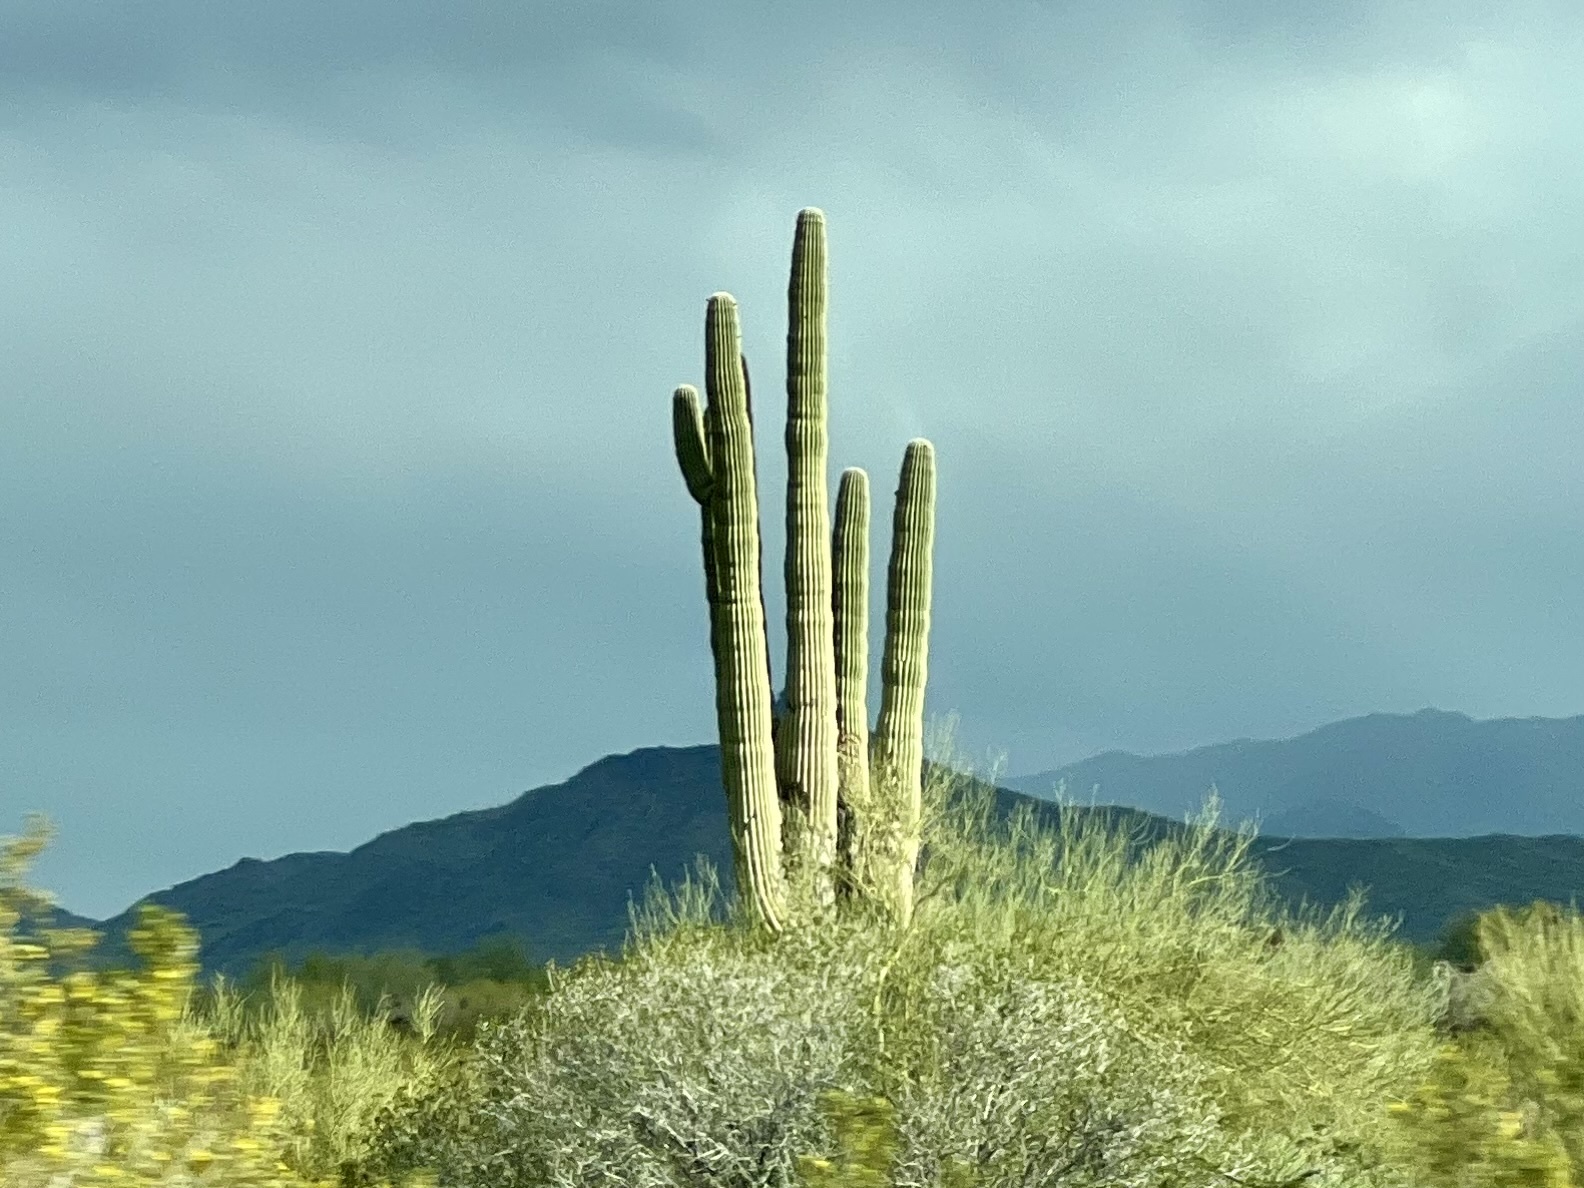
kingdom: Plantae
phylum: Tracheophyta
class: Magnoliopsida
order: Caryophyllales
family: Cactaceae
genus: Carnegiea
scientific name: Carnegiea gigantea
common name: Saguaro
